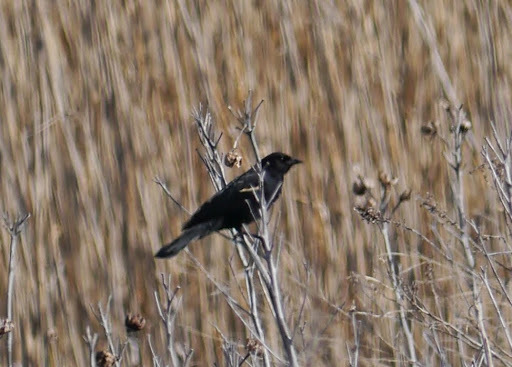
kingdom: Animalia
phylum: Chordata
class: Aves
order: Passeriformes
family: Icteridae
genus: Agelaius
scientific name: Agelaius phoeniceus
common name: Red-winged blackbird
